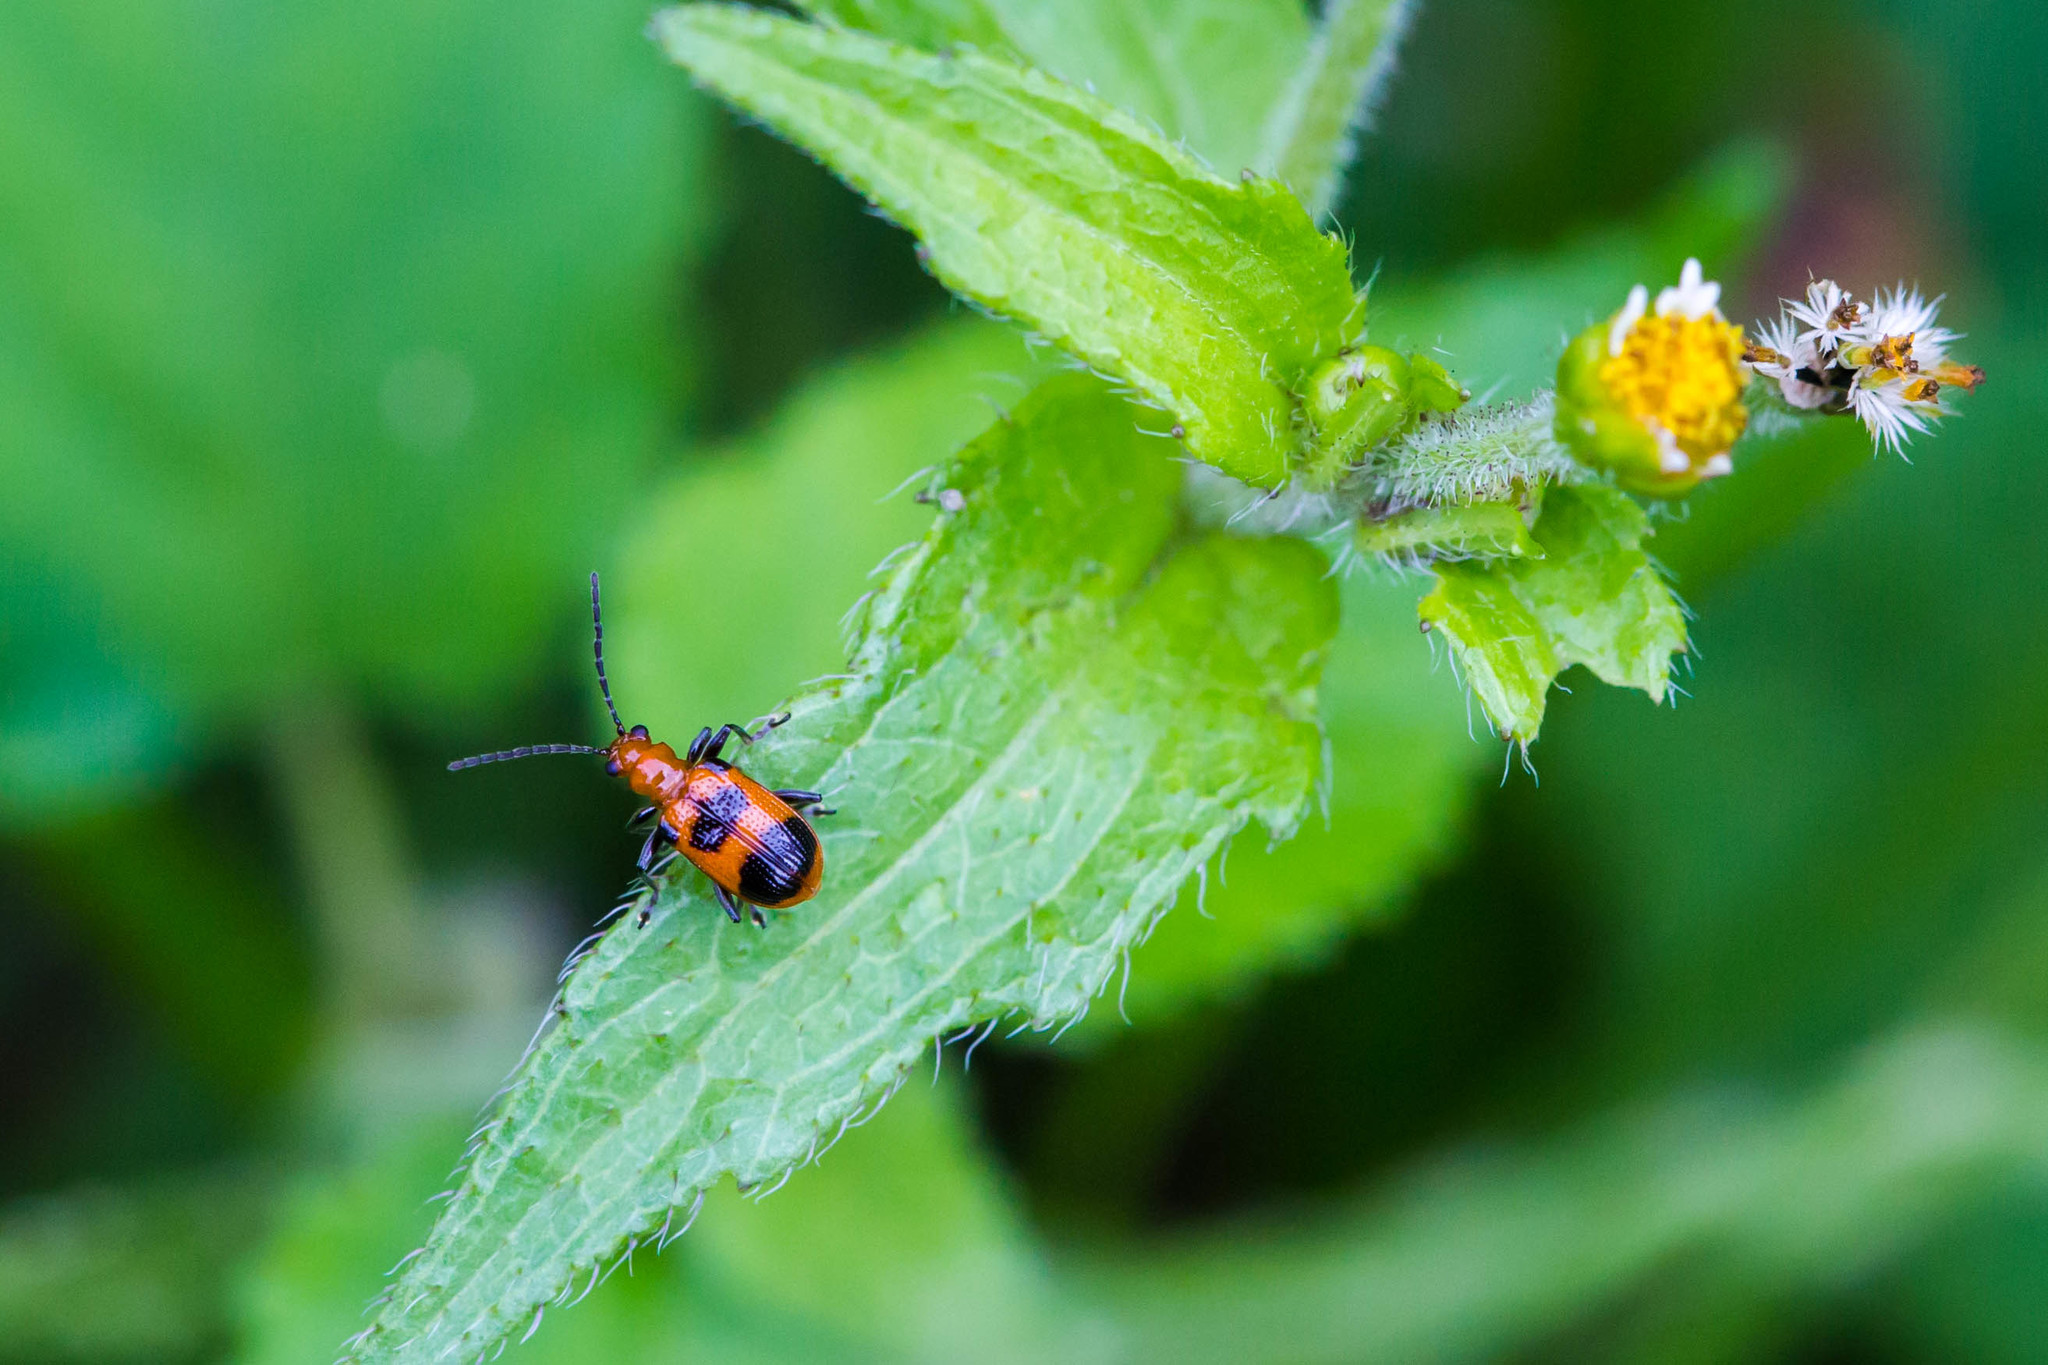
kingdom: Animalia
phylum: Arthropoda
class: Insecta
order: Coleoptera
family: Chrysomelidae
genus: Neolema
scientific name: Neolema sexpunctata
